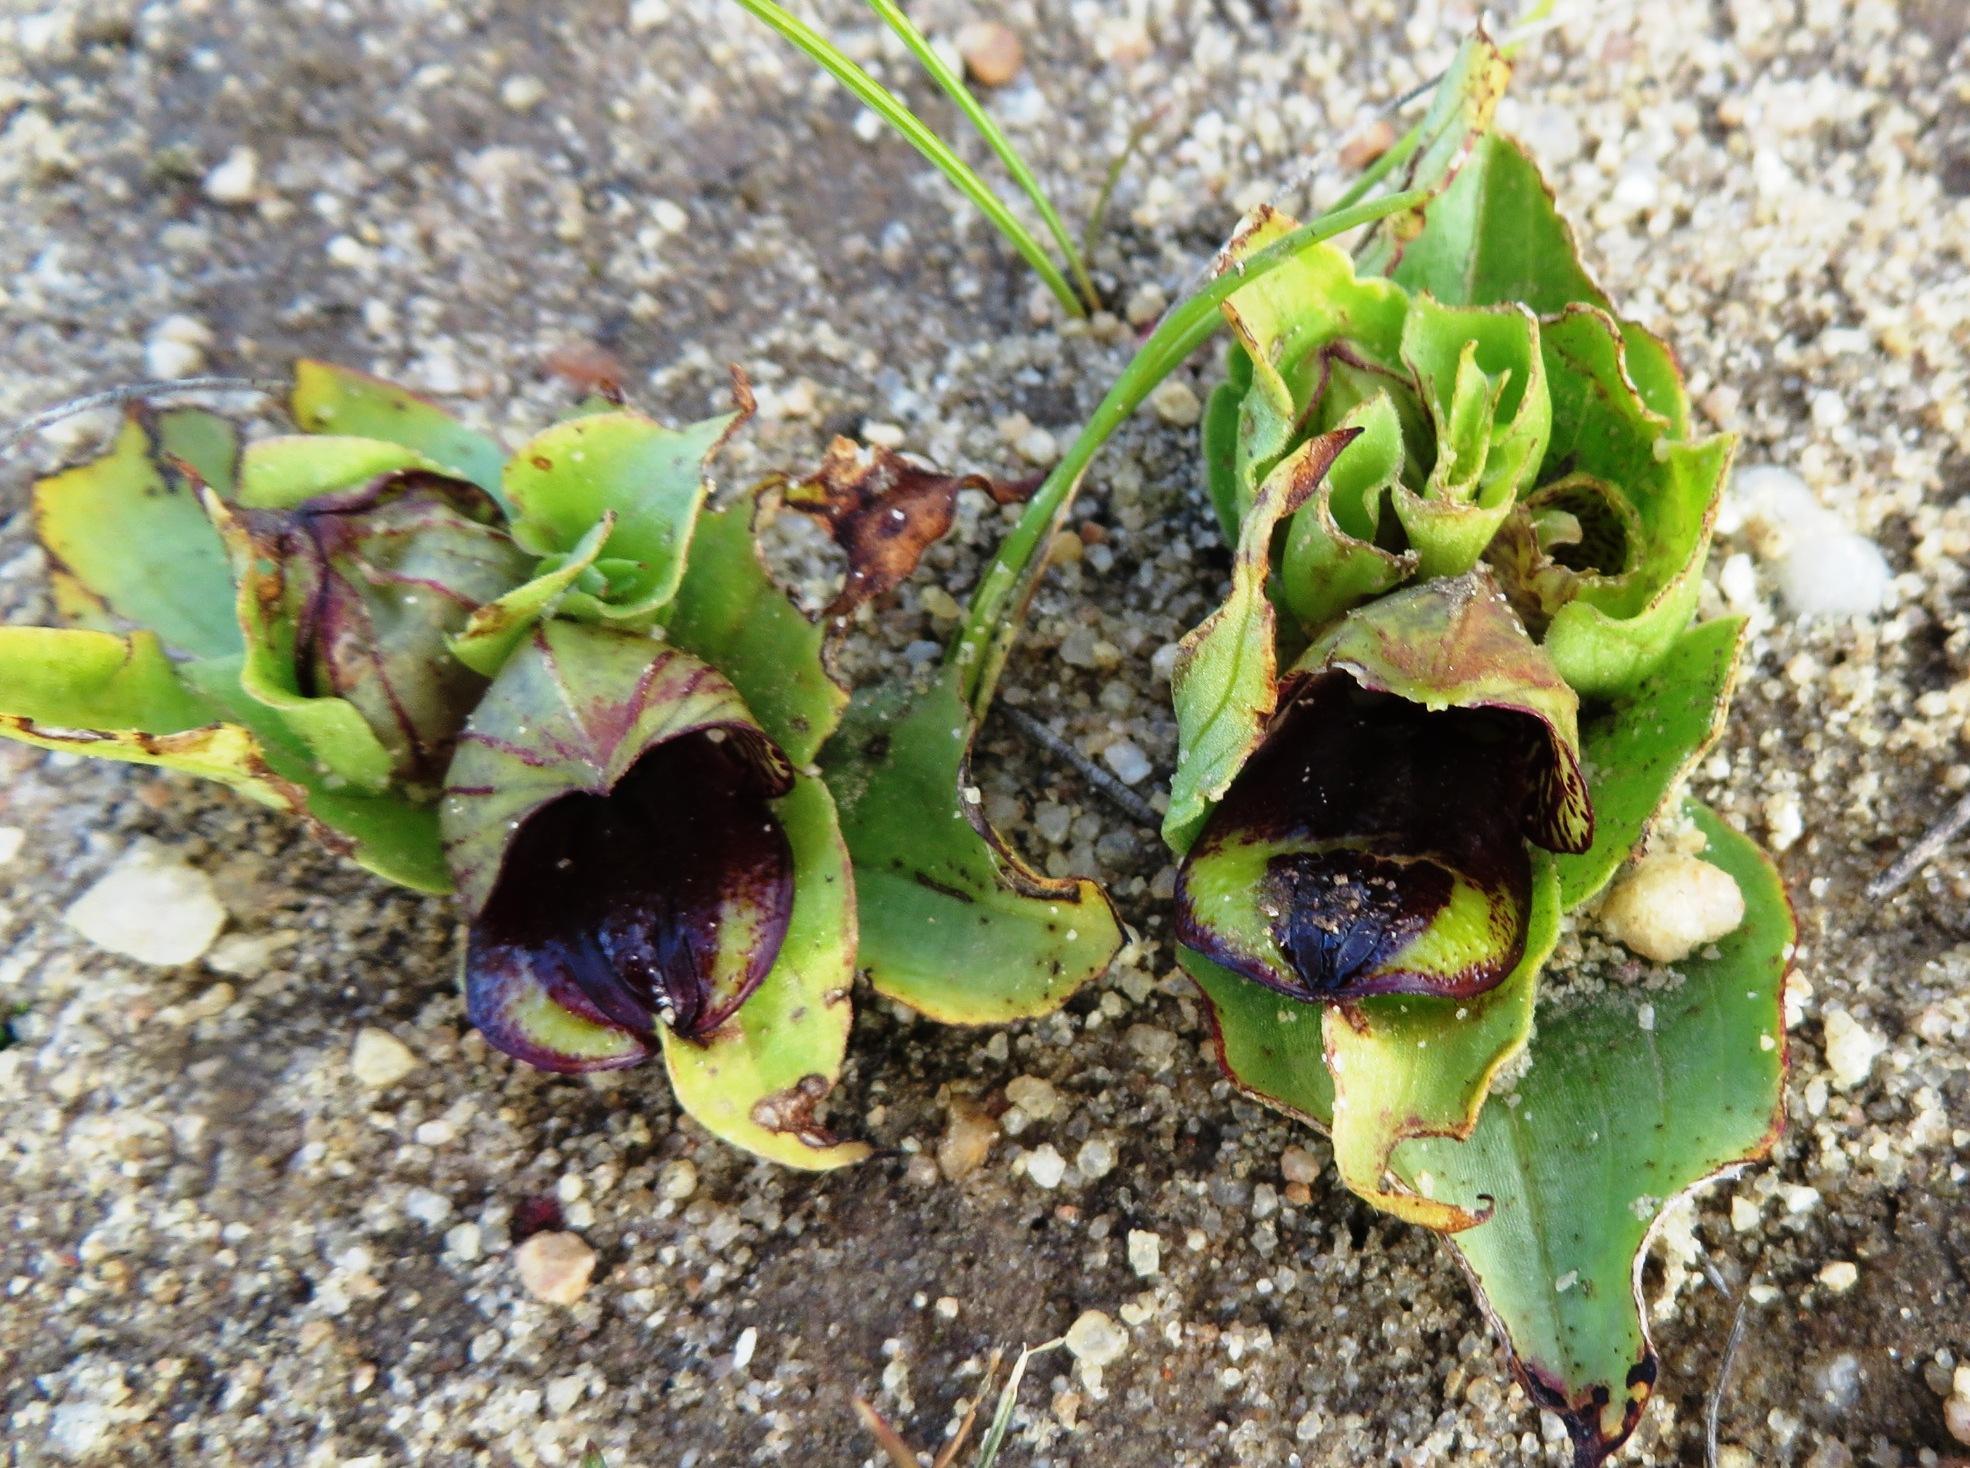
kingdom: Plantae
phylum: Tracheophyta
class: Liliopsida
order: Asparagales
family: Orchidaceae
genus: Satyrium
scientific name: Satyrium pumilum
